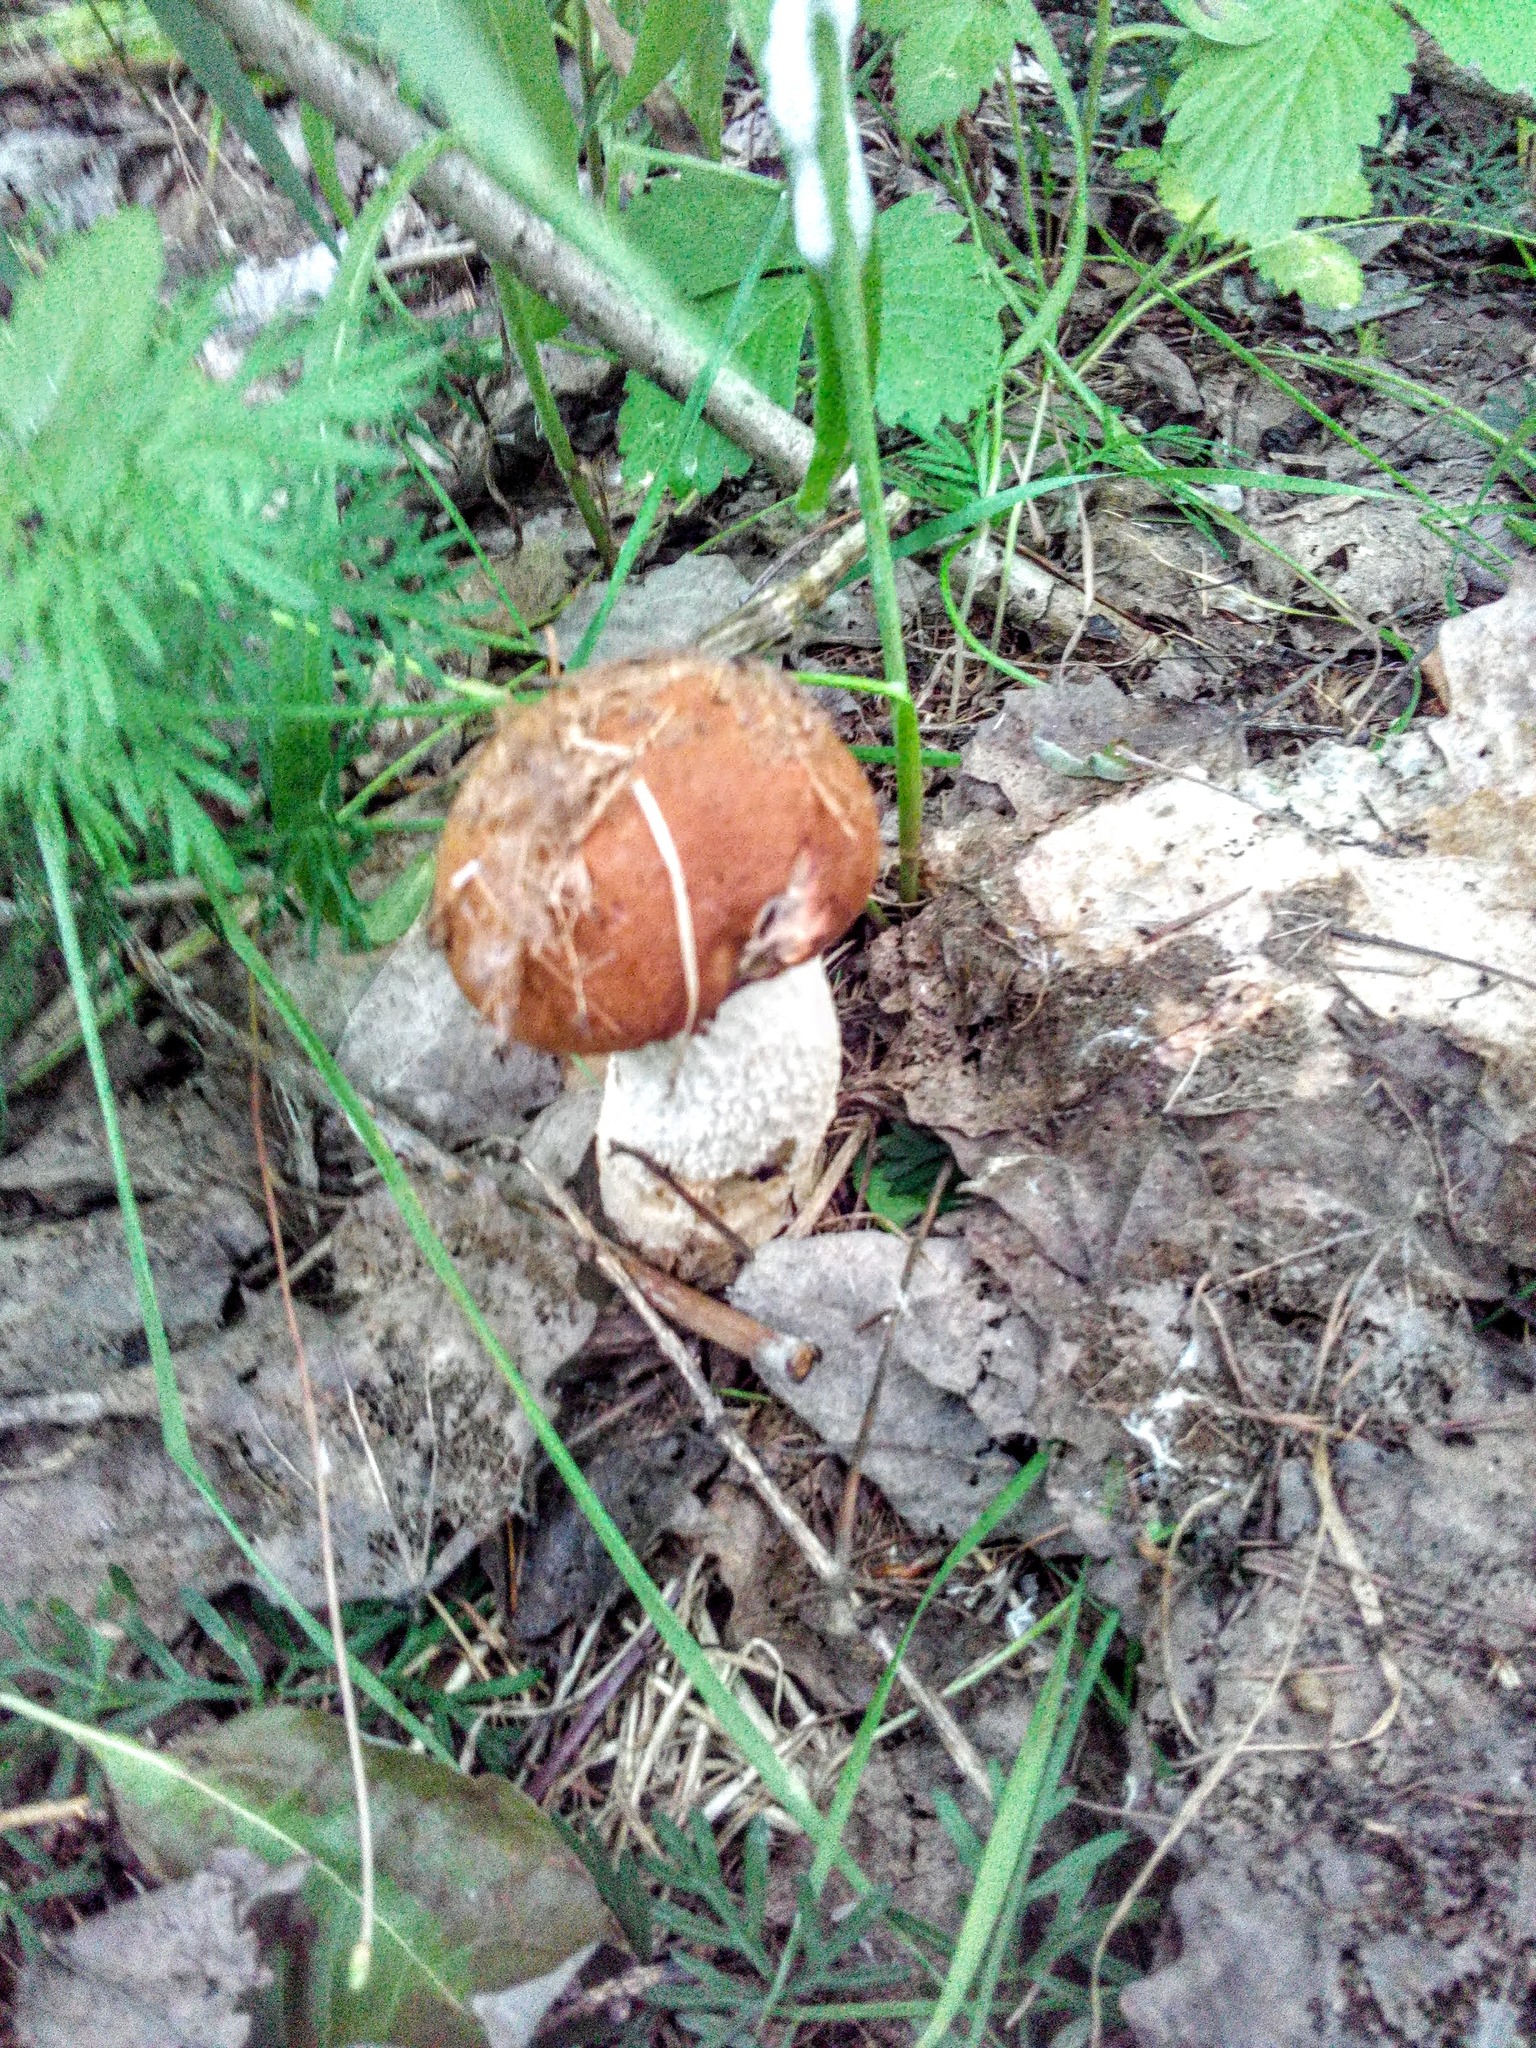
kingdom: Fungi
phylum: Basidiomycota
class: Agaricomycetes
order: Boletales
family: Boletaceae
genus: Leccinum
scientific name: Leccinum albostipitatum
